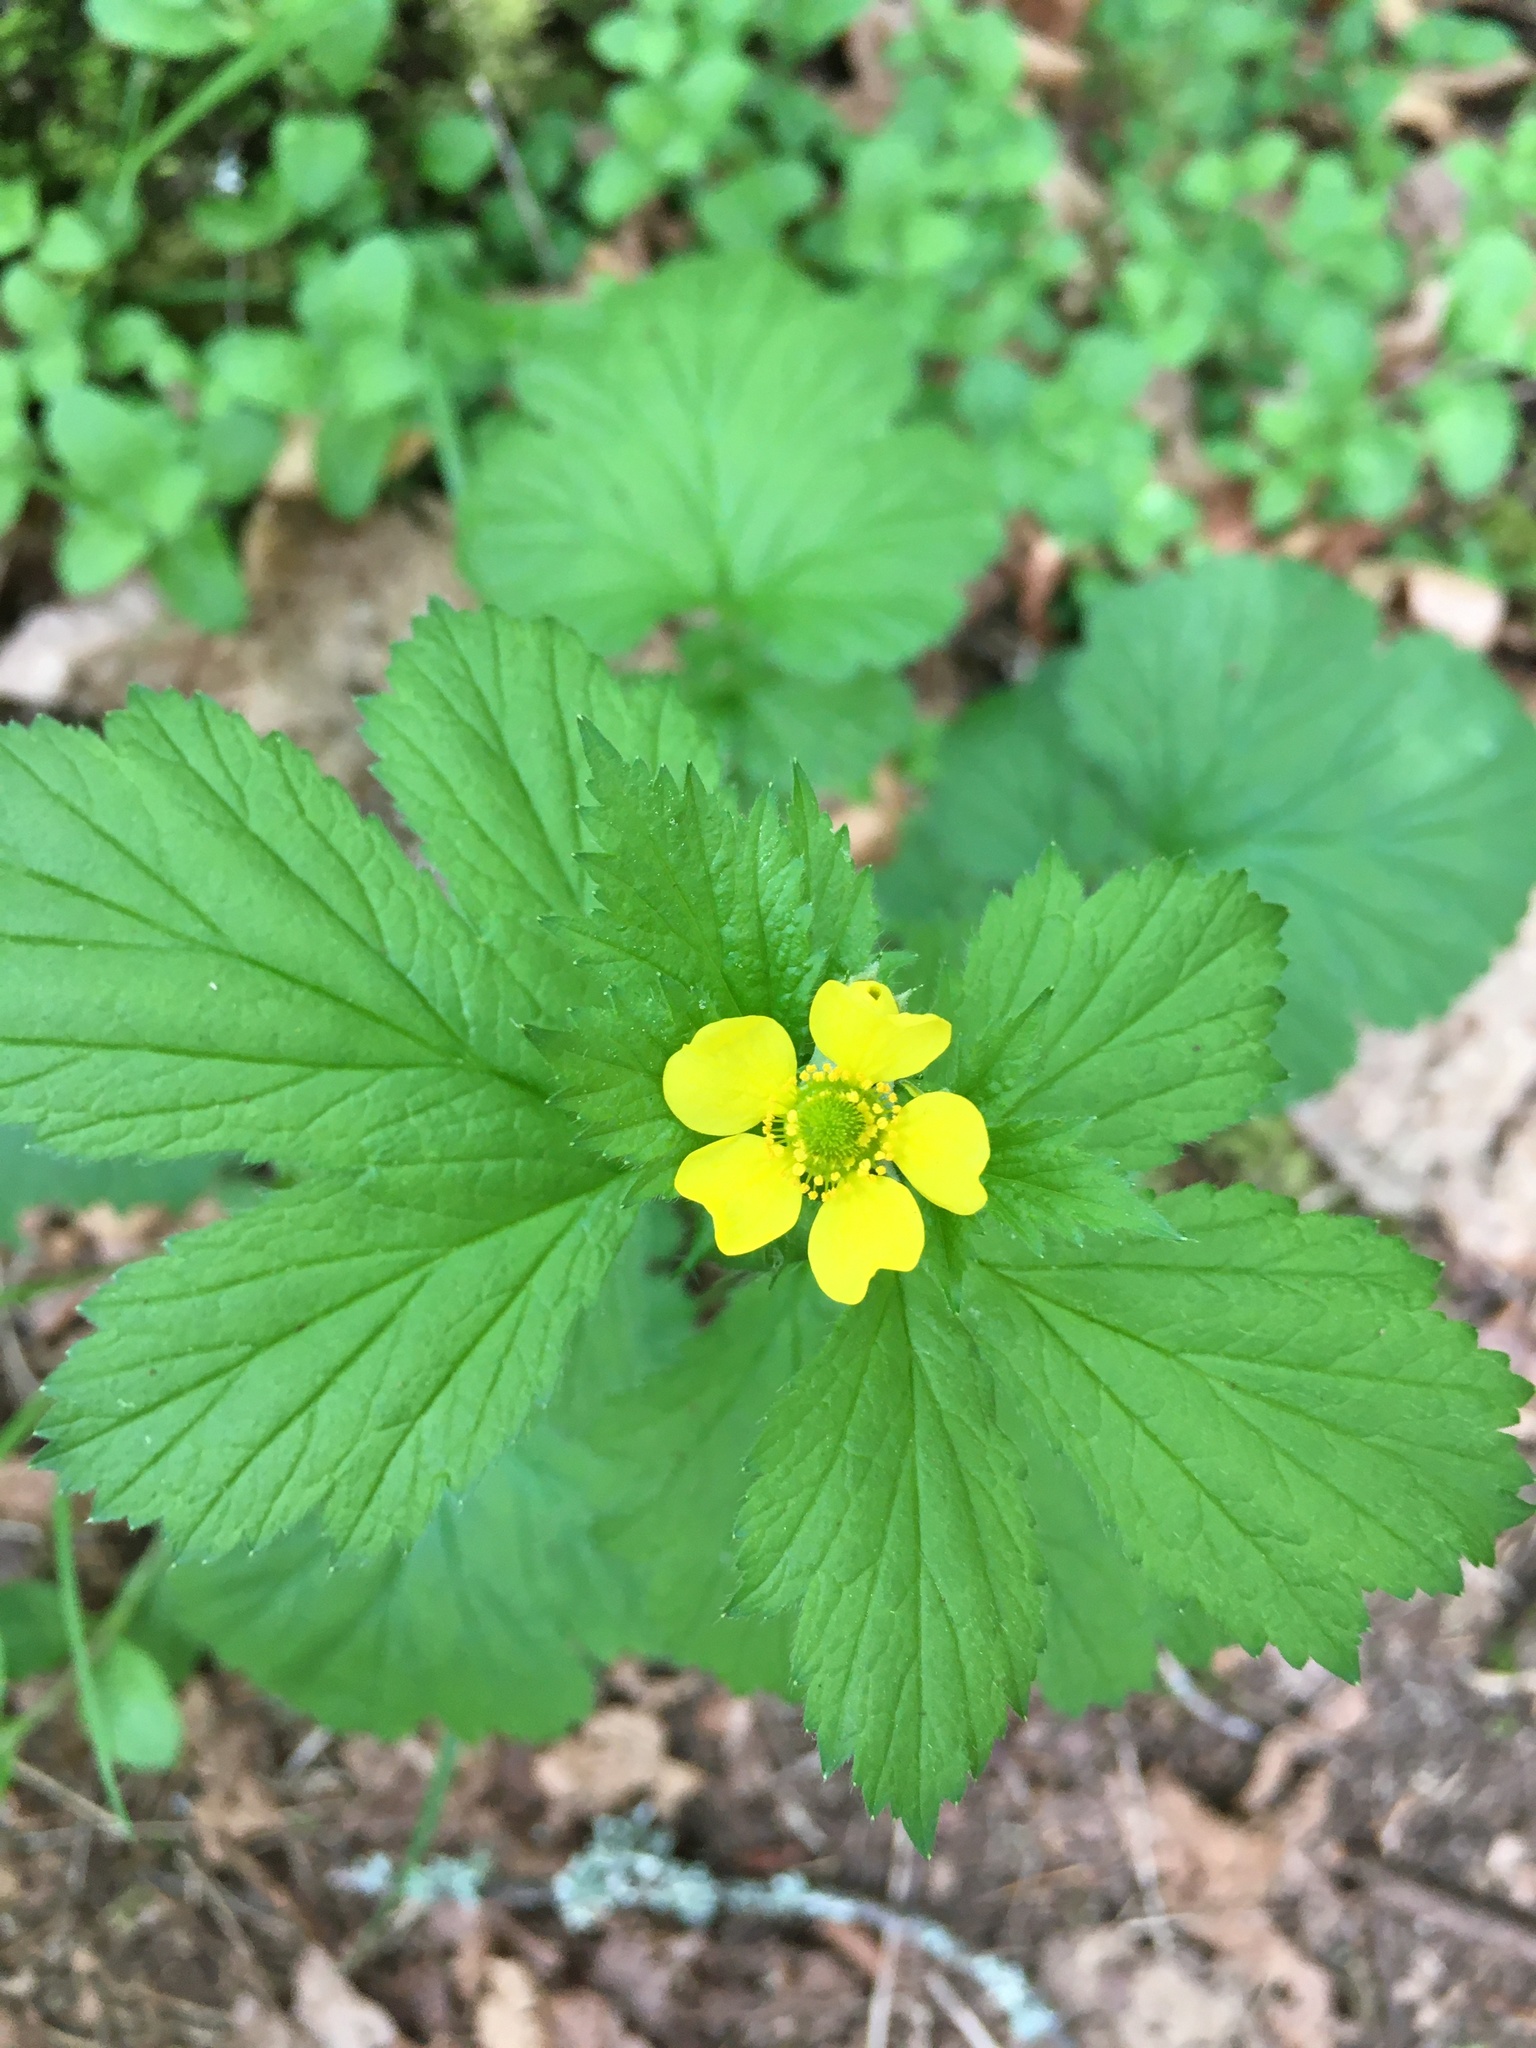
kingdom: Plantae
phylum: Tracheophyta
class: Magnoliopsida
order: Rosales
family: Rosaceae
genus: Geum
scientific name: Geum macrophyllum
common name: Large-leaved avens
